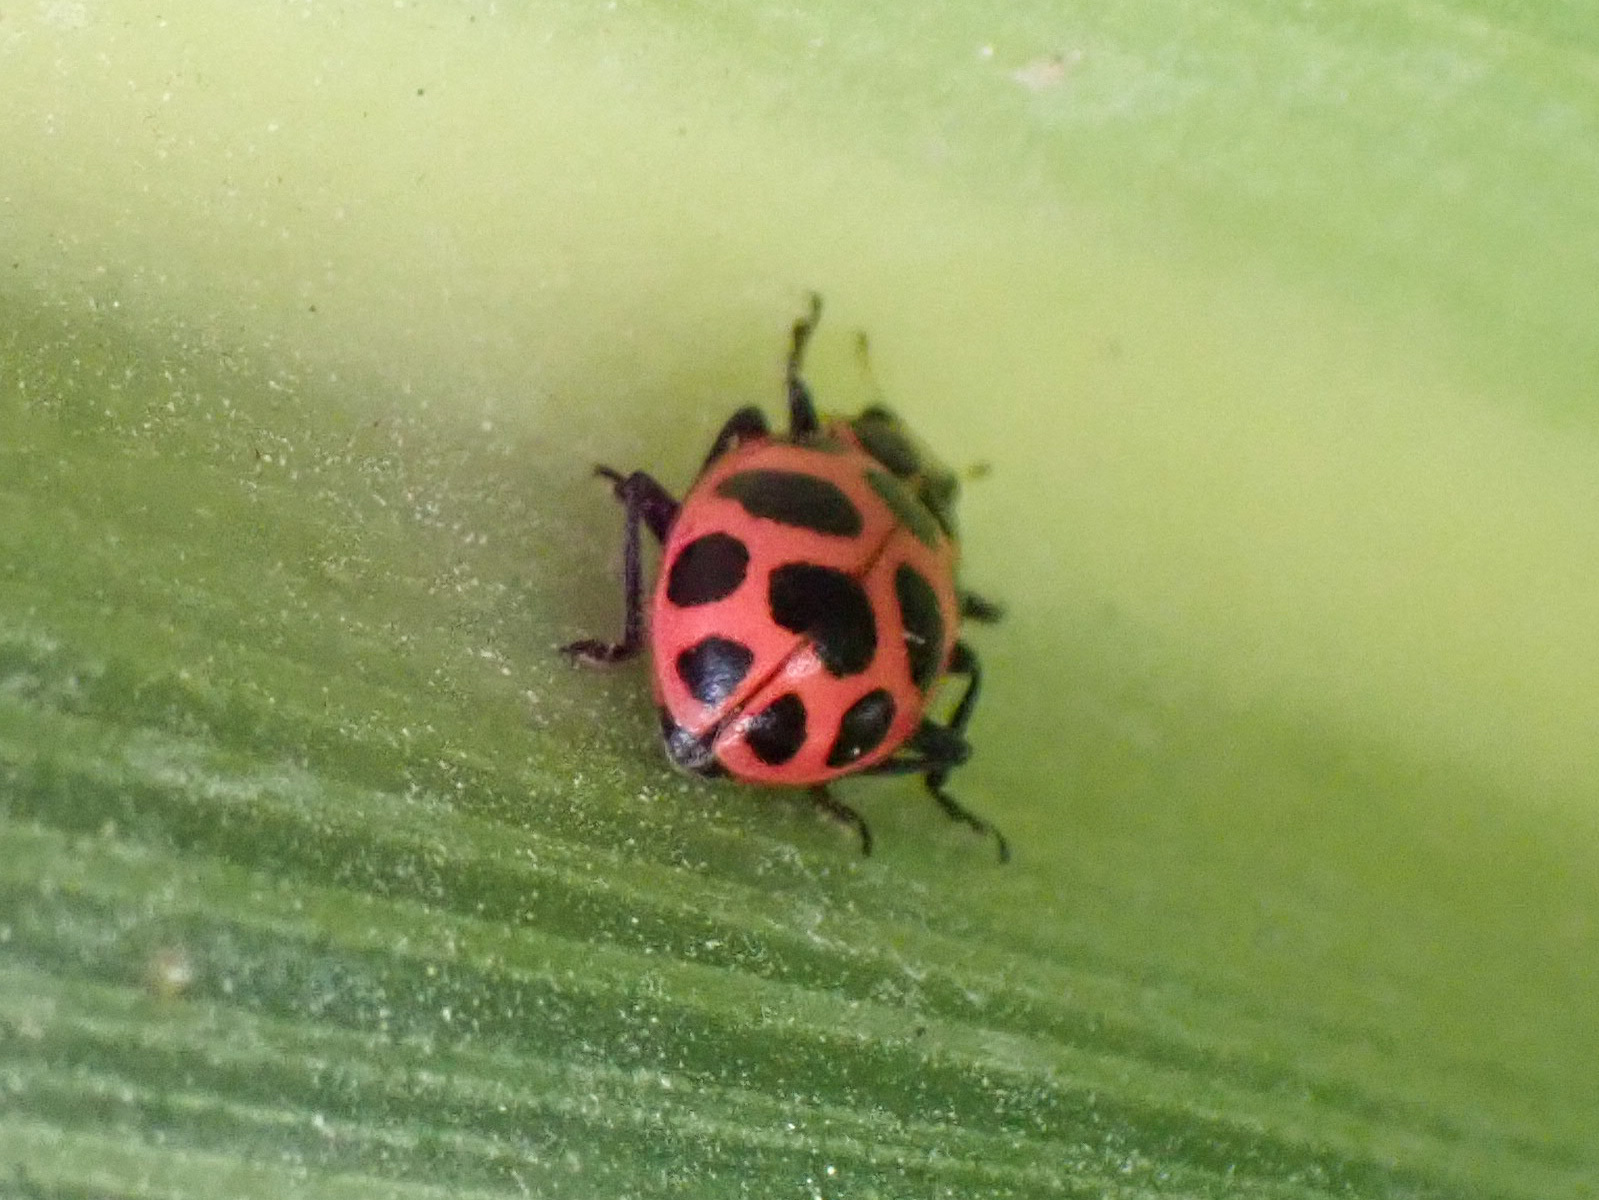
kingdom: Animalia
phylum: Arthropoda
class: Insecta
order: Coleoptera
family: Coccinellidae
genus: Coleomegilla
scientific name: Coleomegilla maculata
